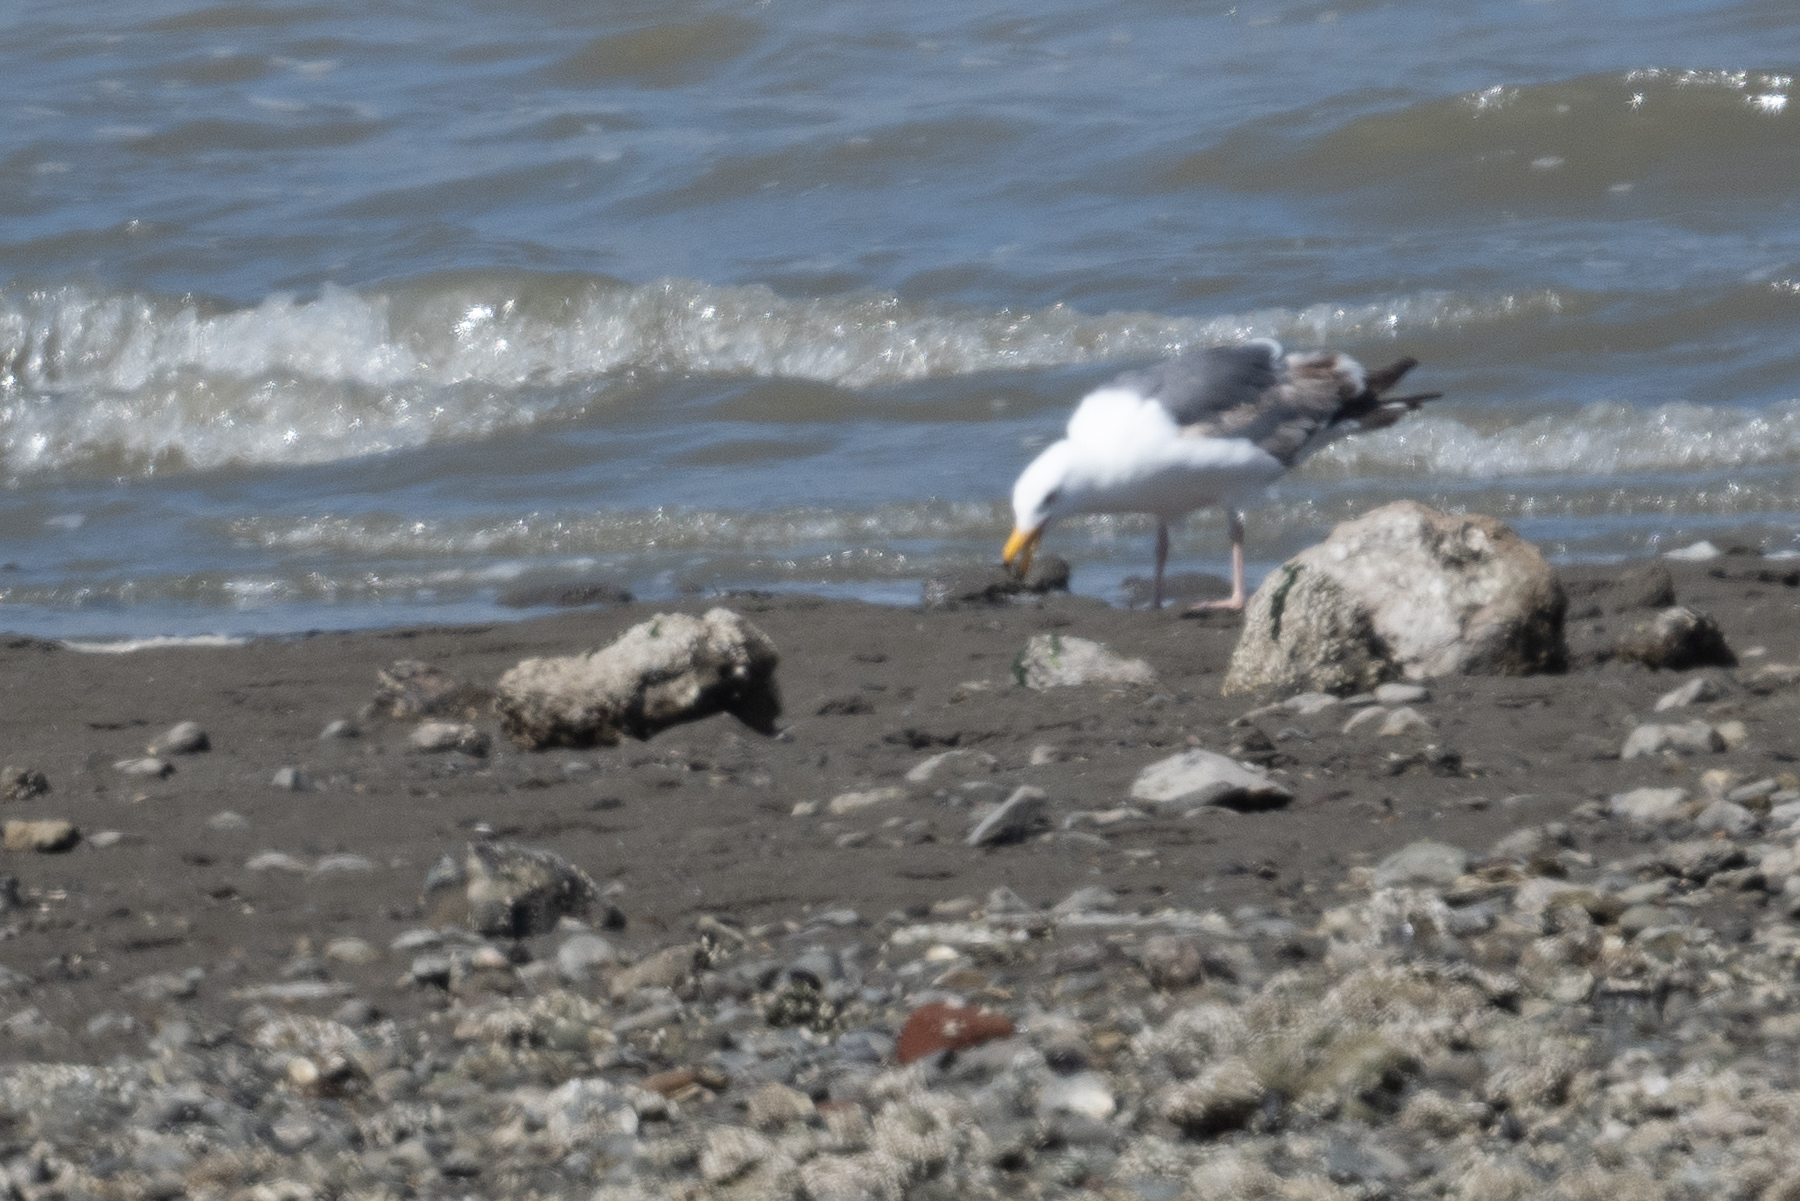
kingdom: Animalia
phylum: Chordata
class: Aves
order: Charadriiformes
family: Laridae
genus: Larus
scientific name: Larus occidentalis
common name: Western gull
